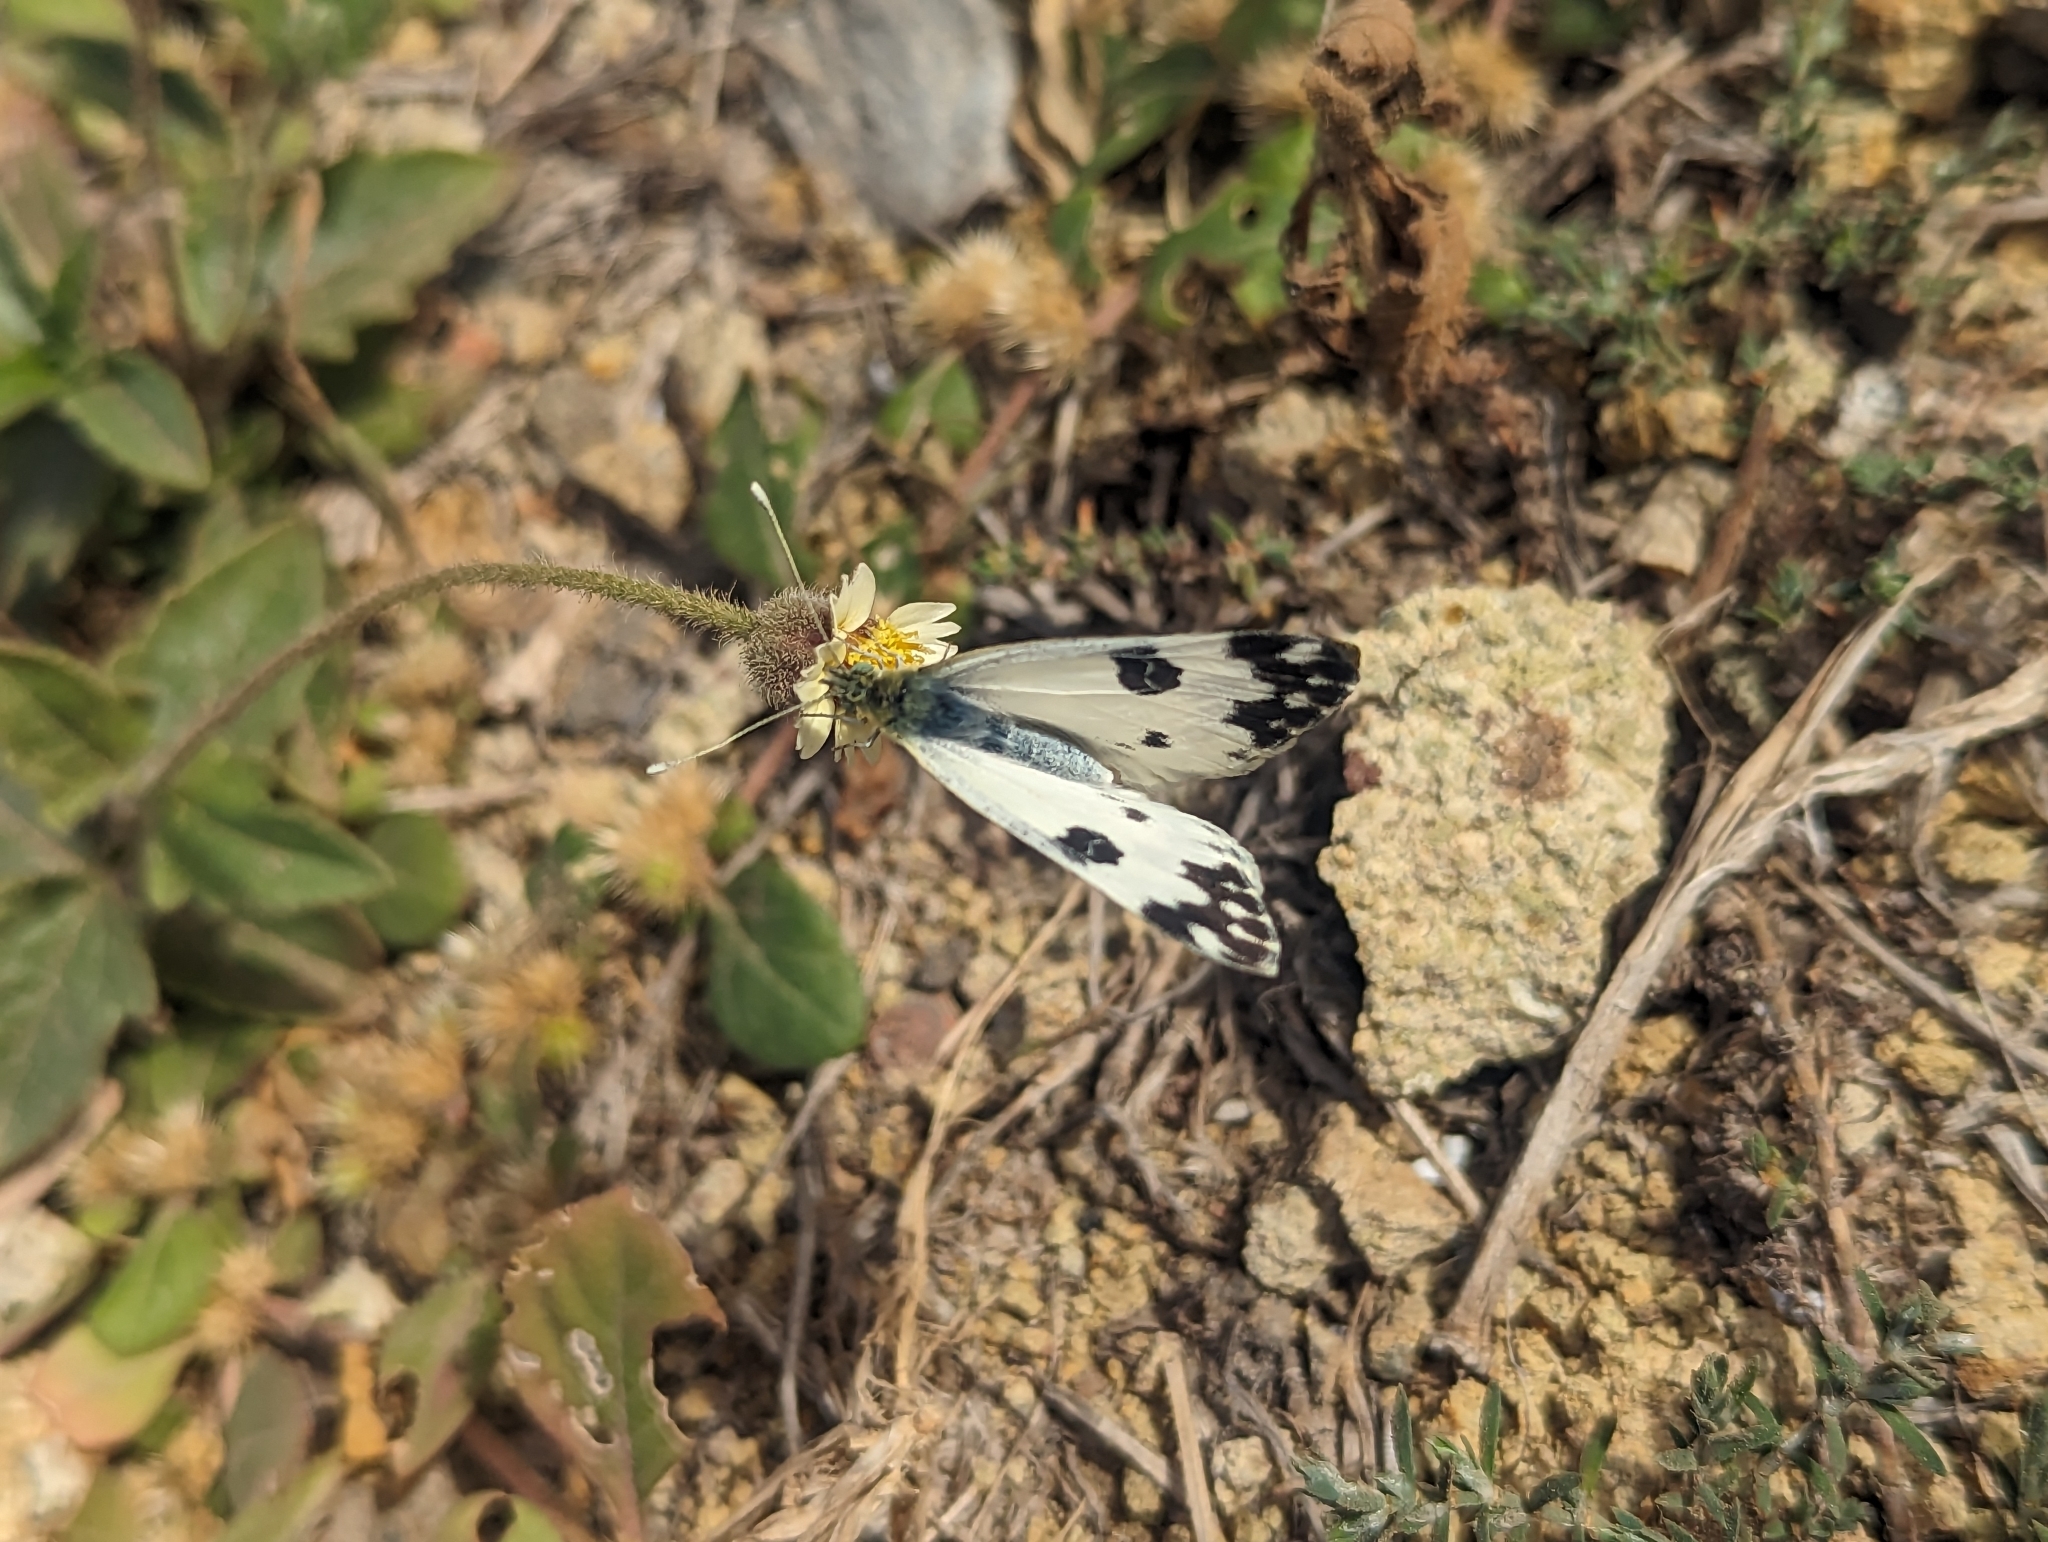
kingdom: Animalia
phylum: Arthropoda
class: Insecta
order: Lepidoptera
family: Pieridae
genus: Pontia
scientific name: Pontia daplidice
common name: Bath white
